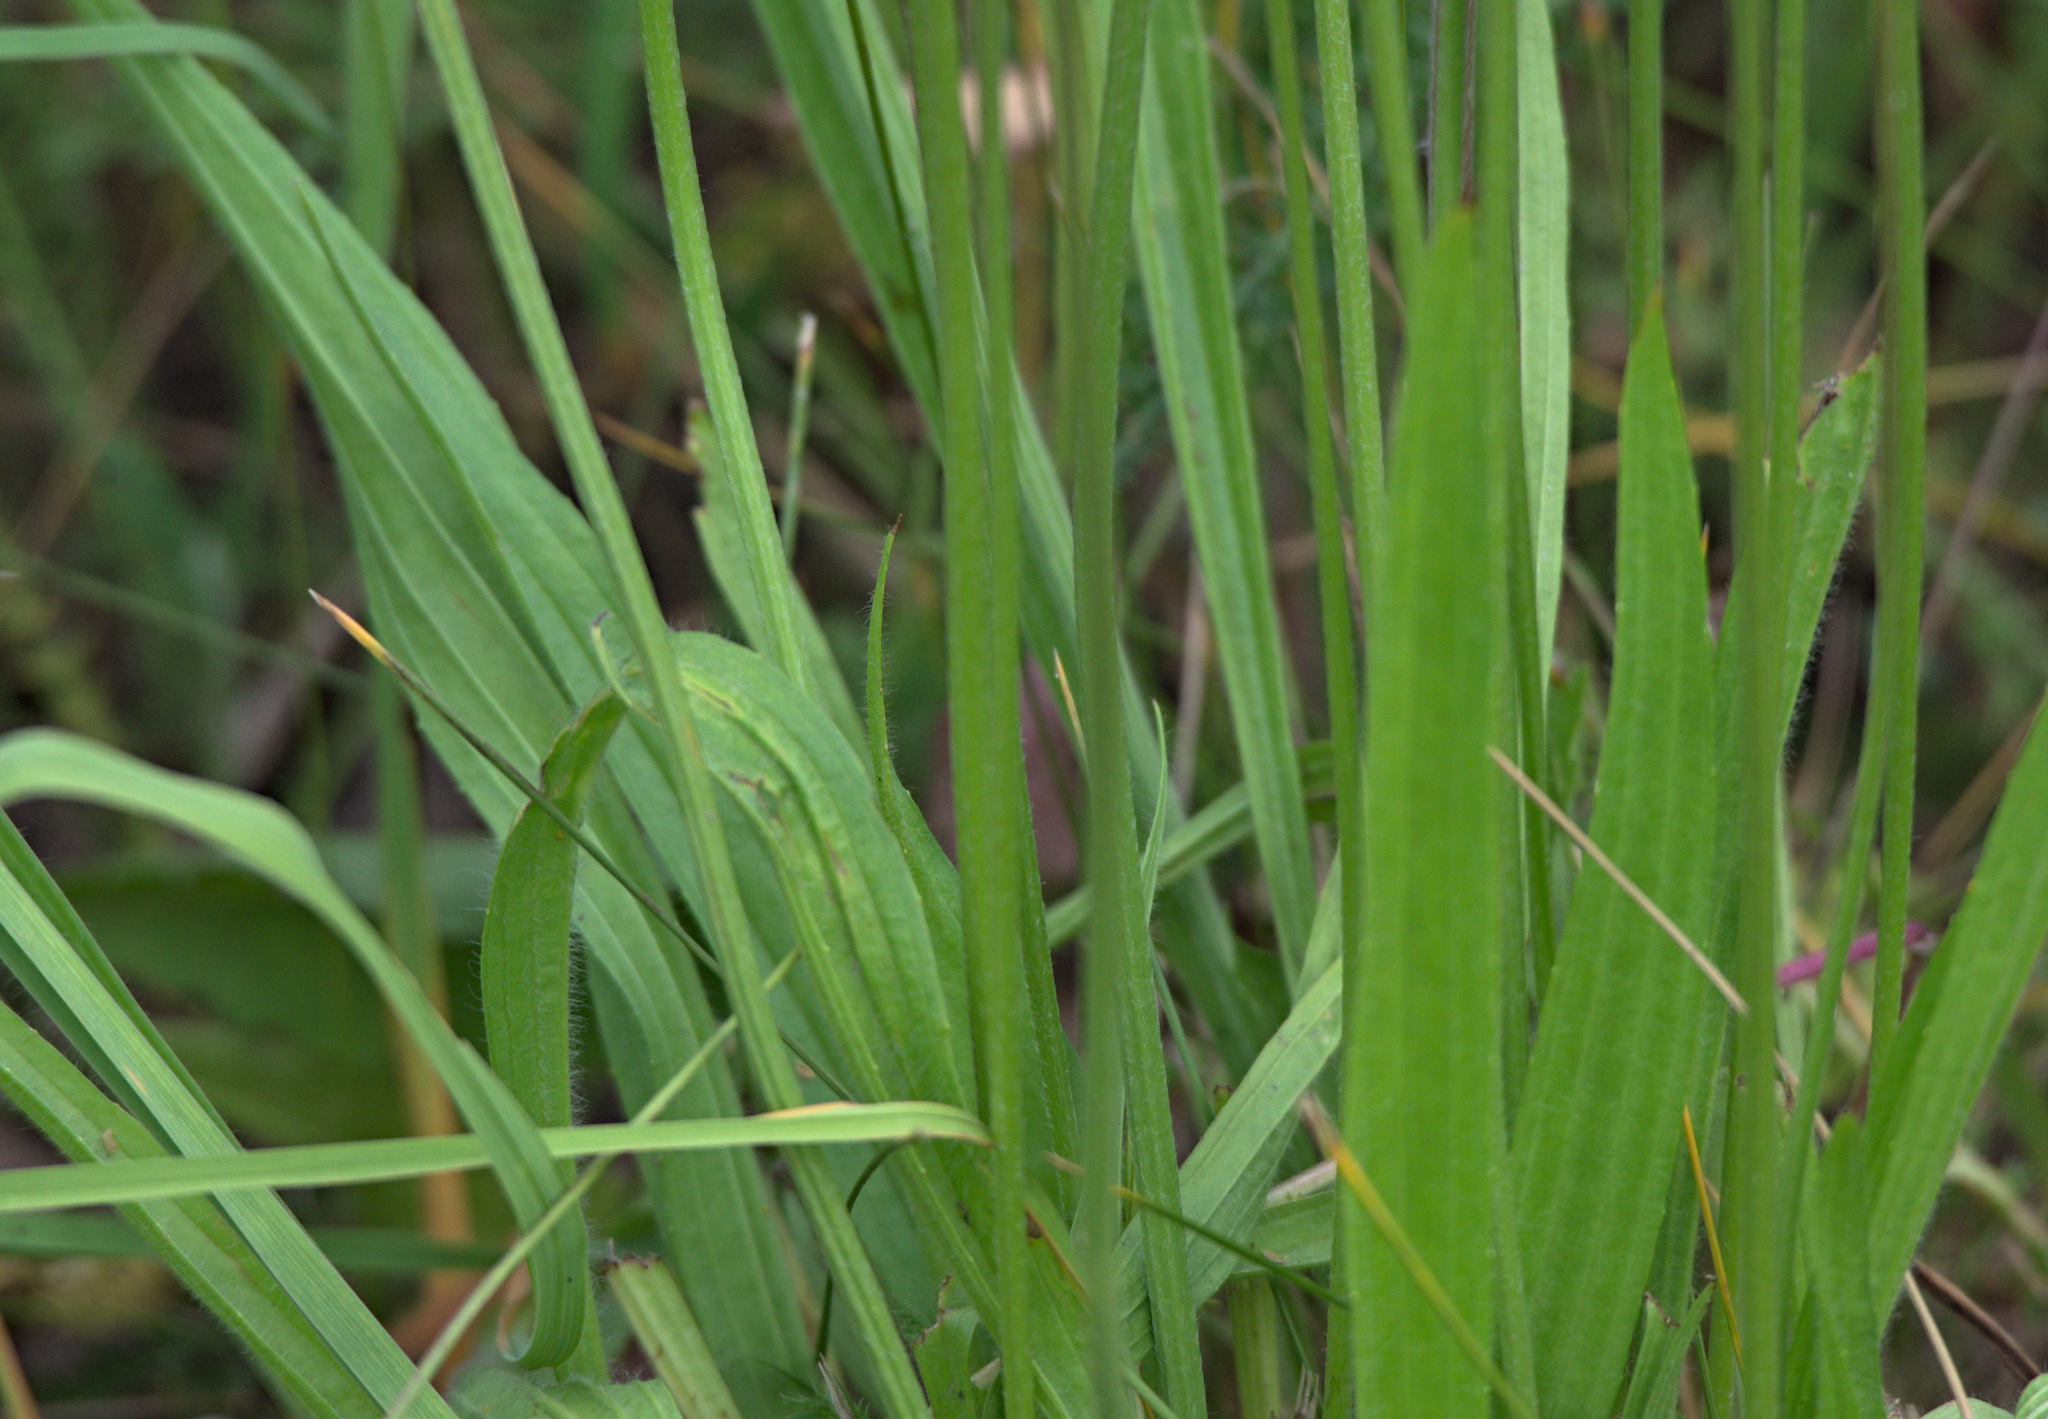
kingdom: Plantae
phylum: Tracheophyta
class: Magnoliopsida
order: Lamiales
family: Plantaginaceae
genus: Plantago
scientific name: Plantago lanceolata
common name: Ribwort plantain
